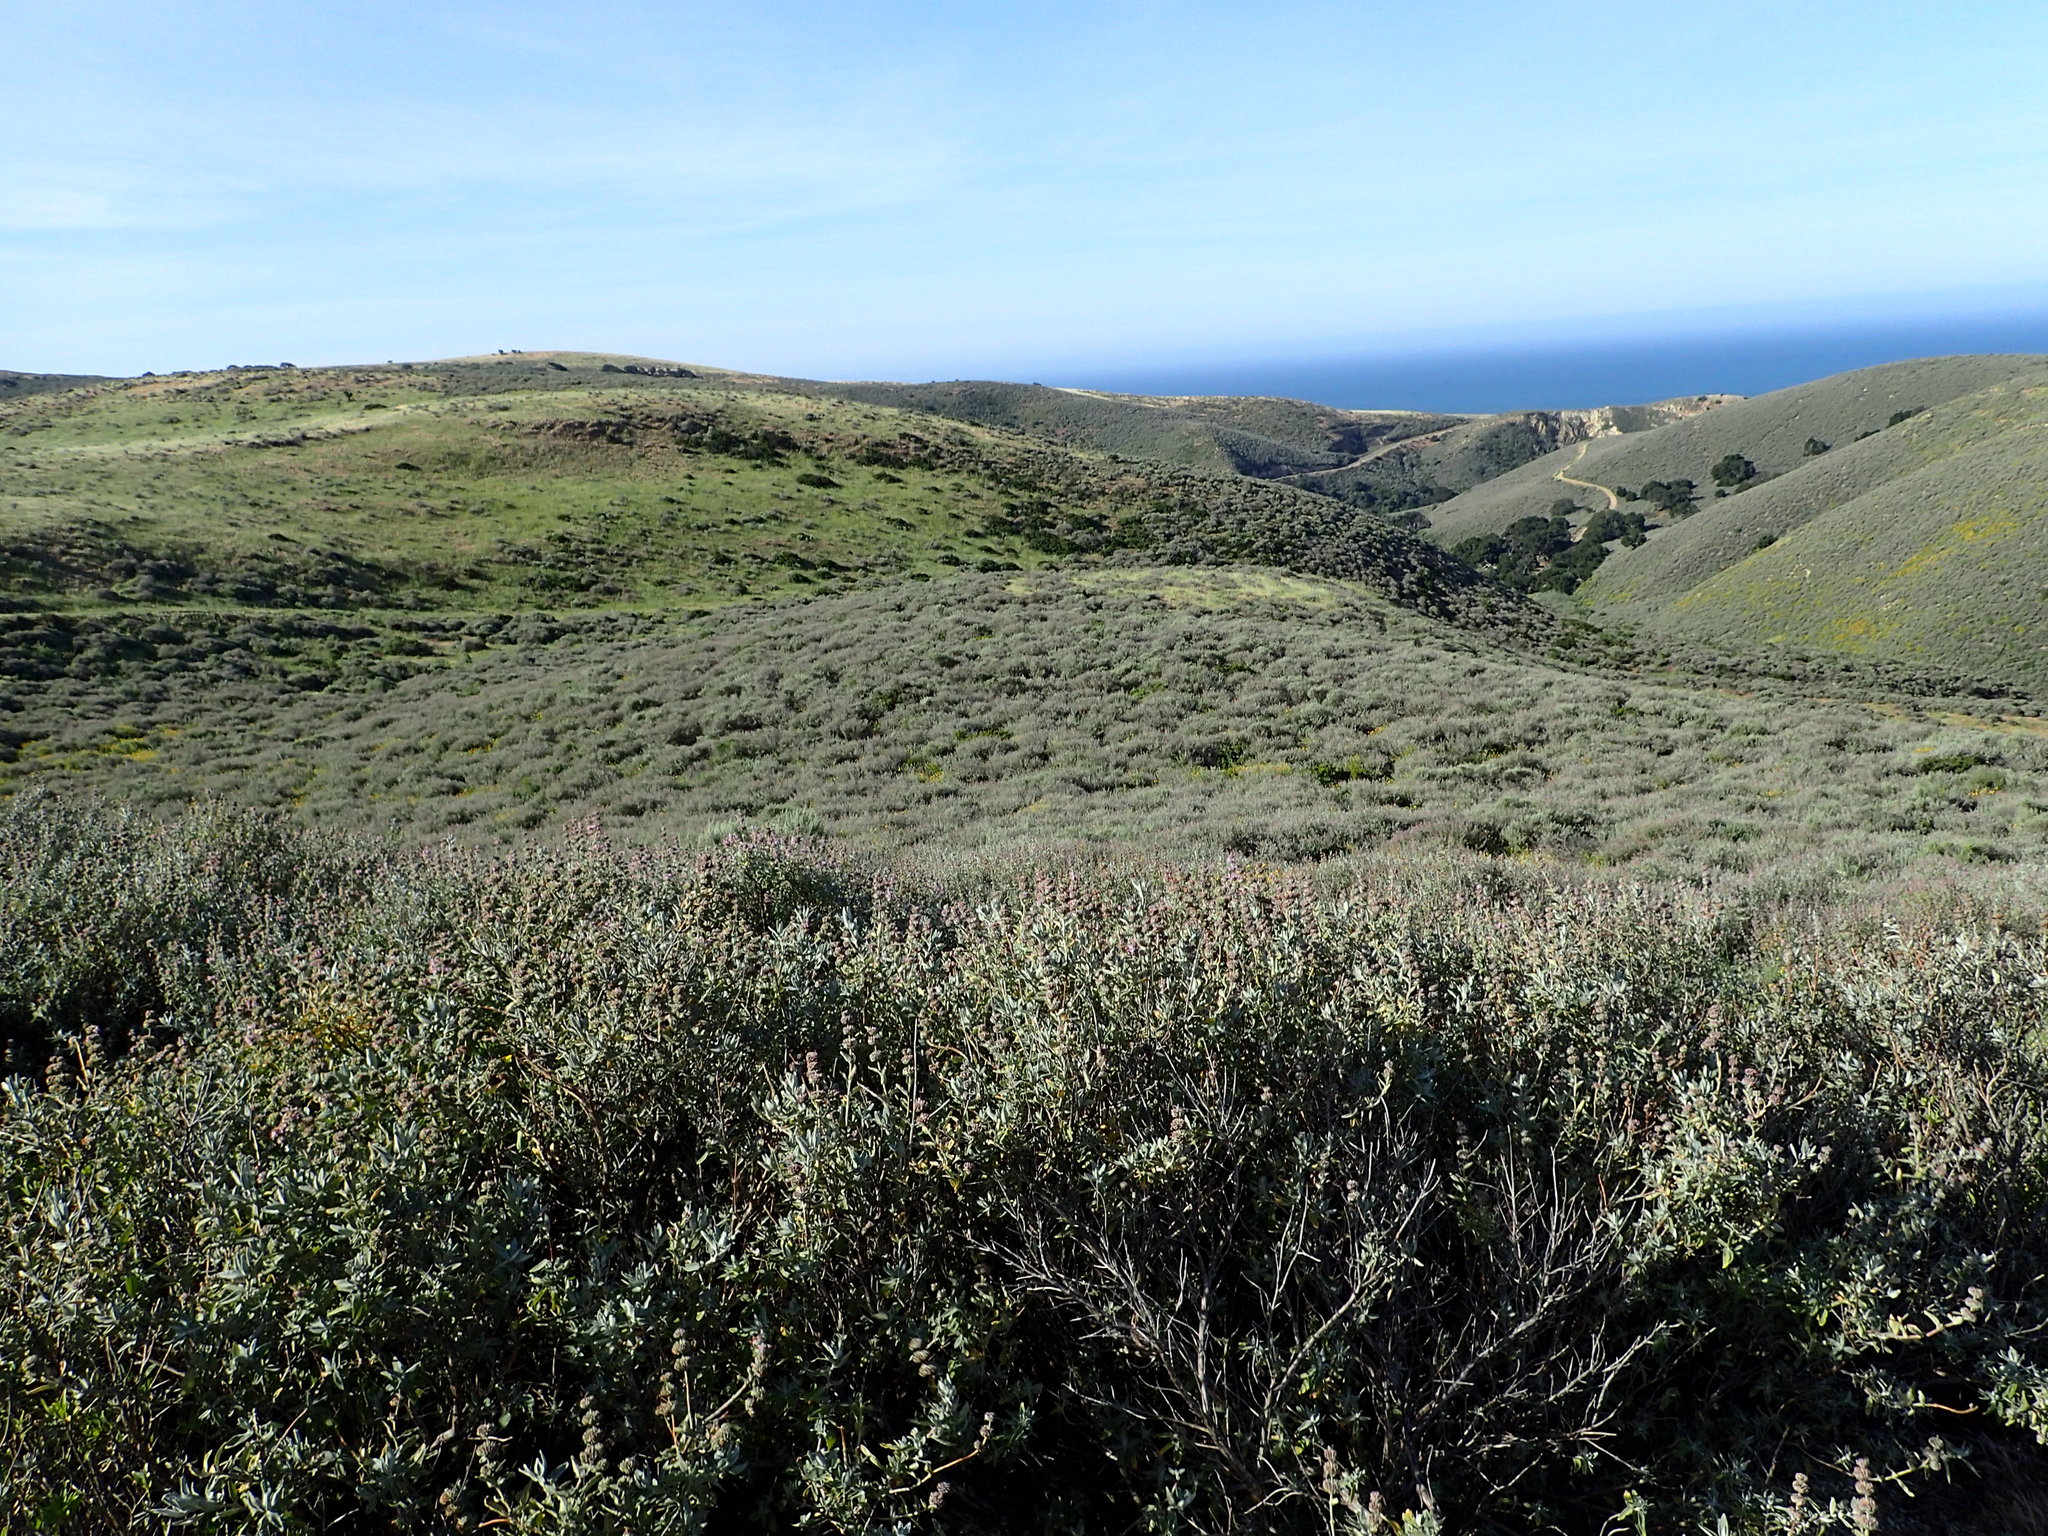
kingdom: Plantae
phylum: Tracheophyta
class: Magnoliopsida
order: Lamiales
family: Lamiaceae
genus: Salvia
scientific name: Salvia leucophylla
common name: Purple sage
